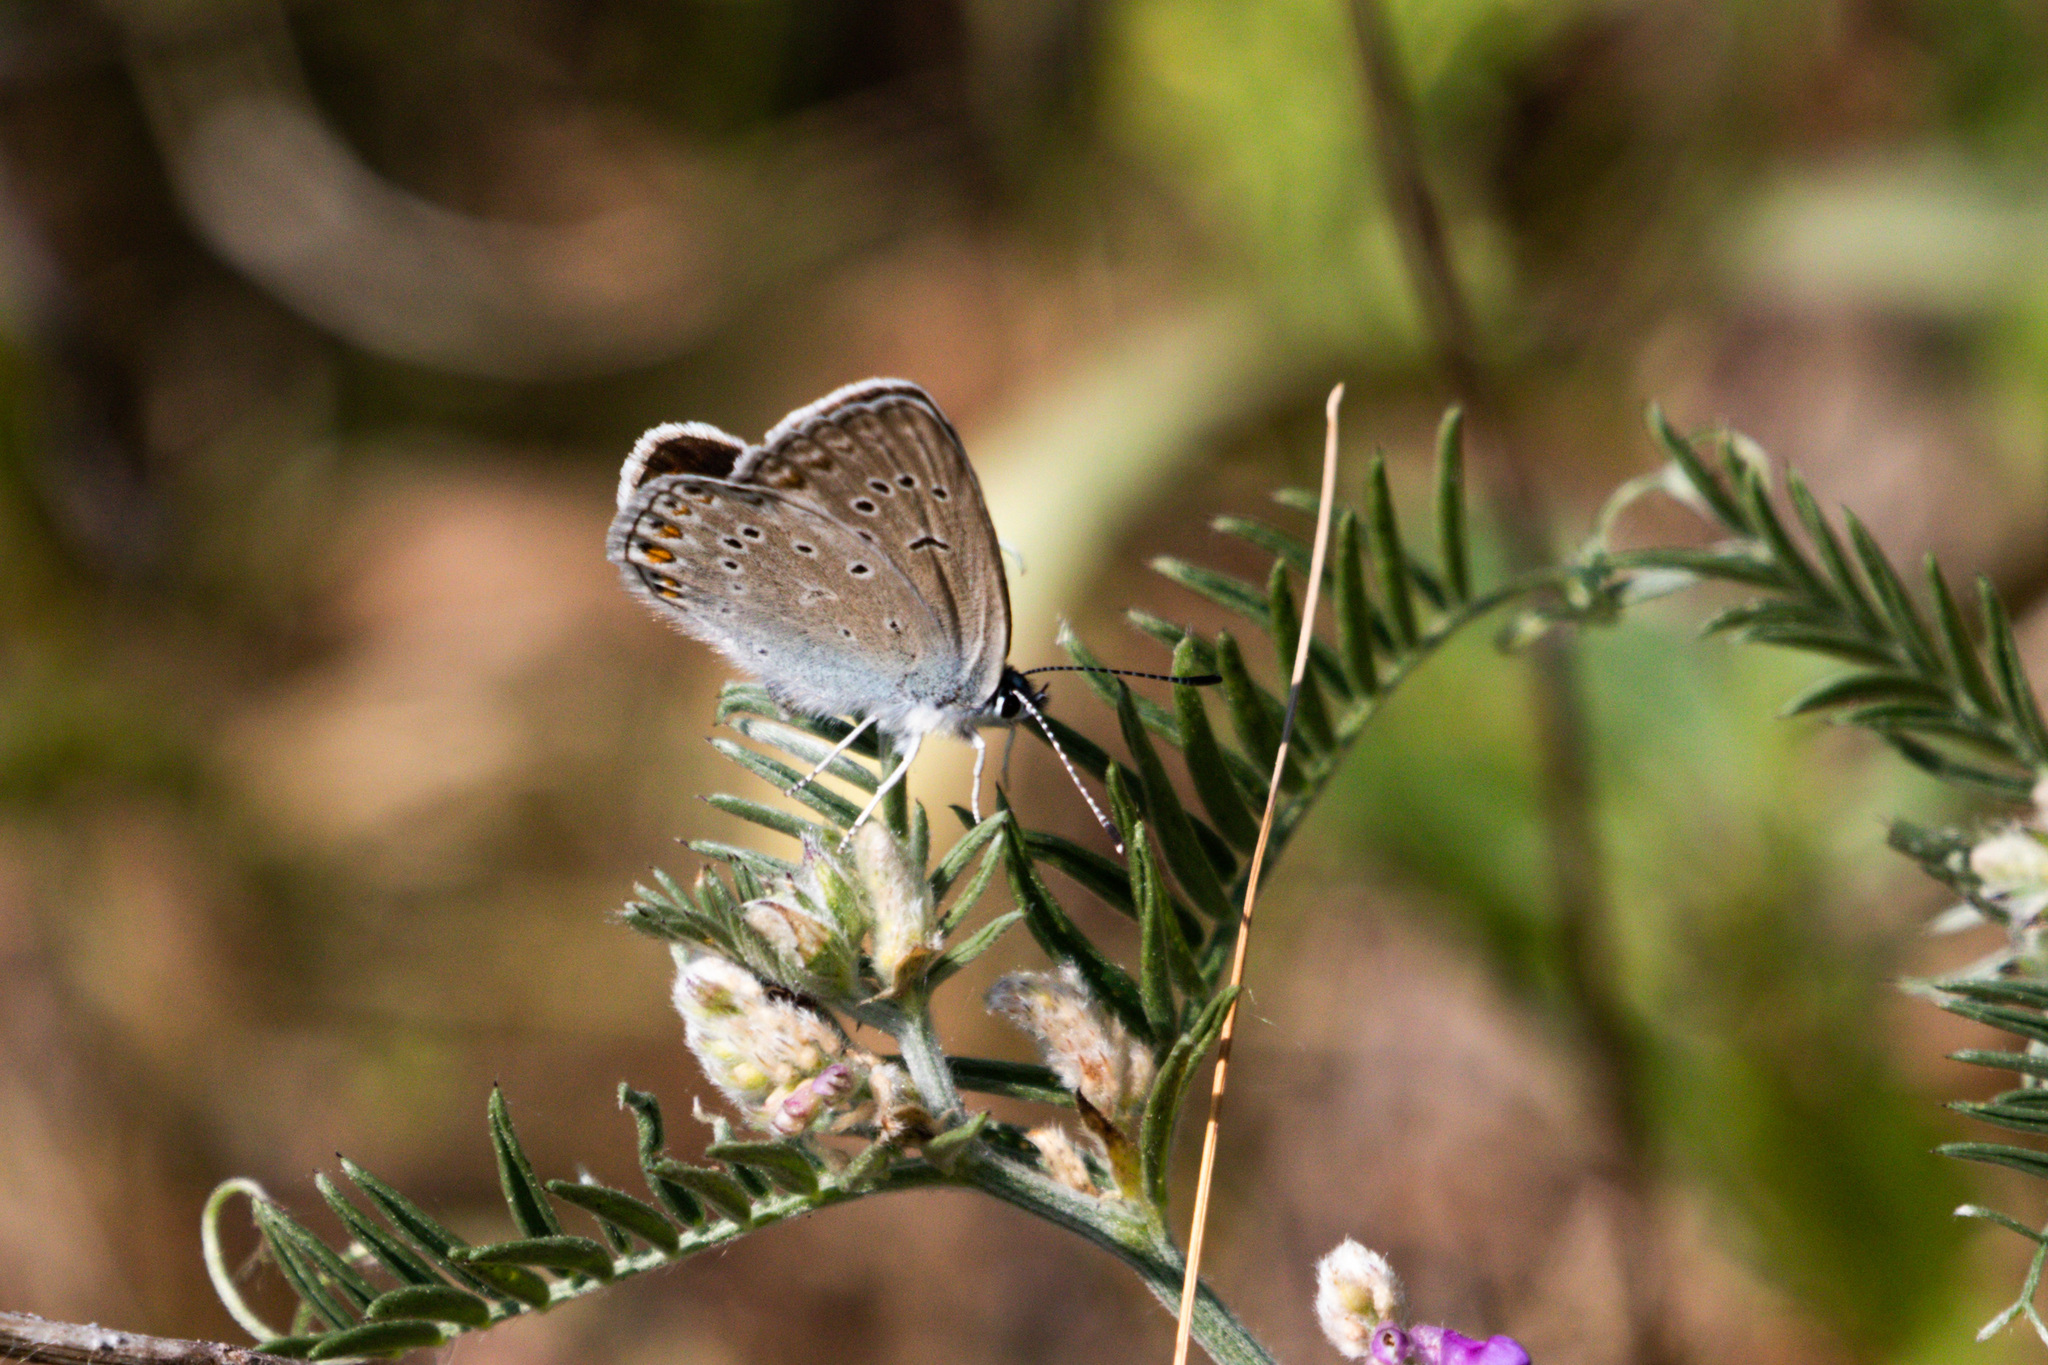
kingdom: Animalia
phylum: Arthropoda
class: Insecta
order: Lepidoptera
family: Lycaenidae
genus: Plebejus
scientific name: Plebejus amanda
